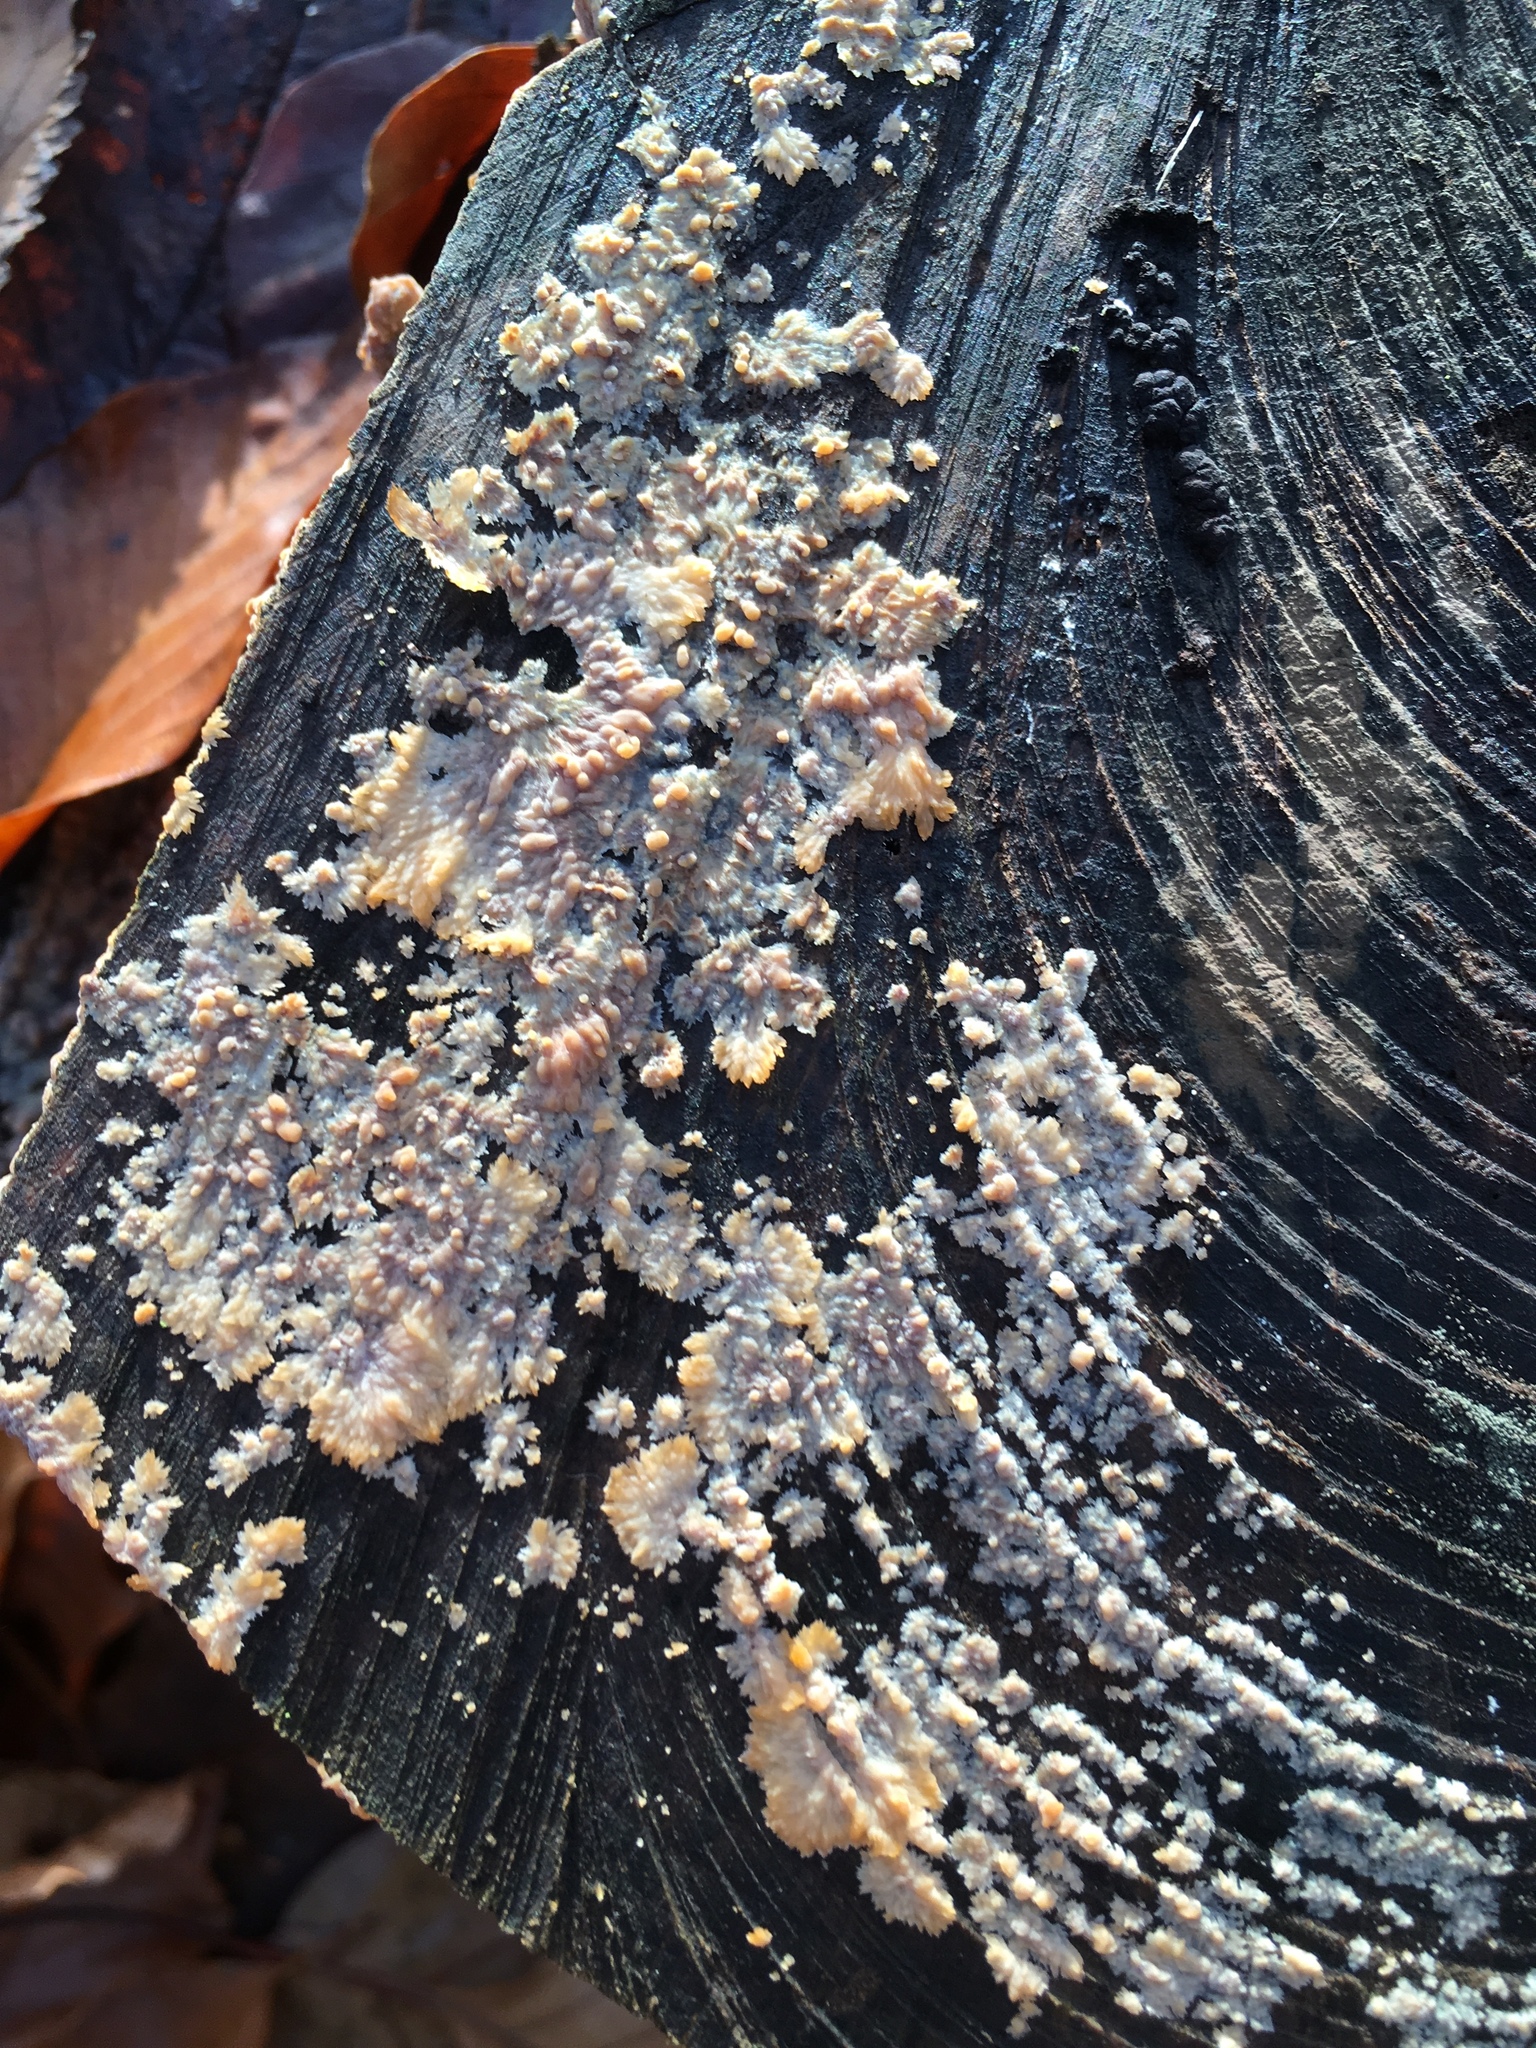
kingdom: Fungi
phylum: Basidiomycota
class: Agaricomycetes
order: Polyporales
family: Meruliaceae
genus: Phlebia
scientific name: Phlebia radiata
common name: Wrinkled crust
